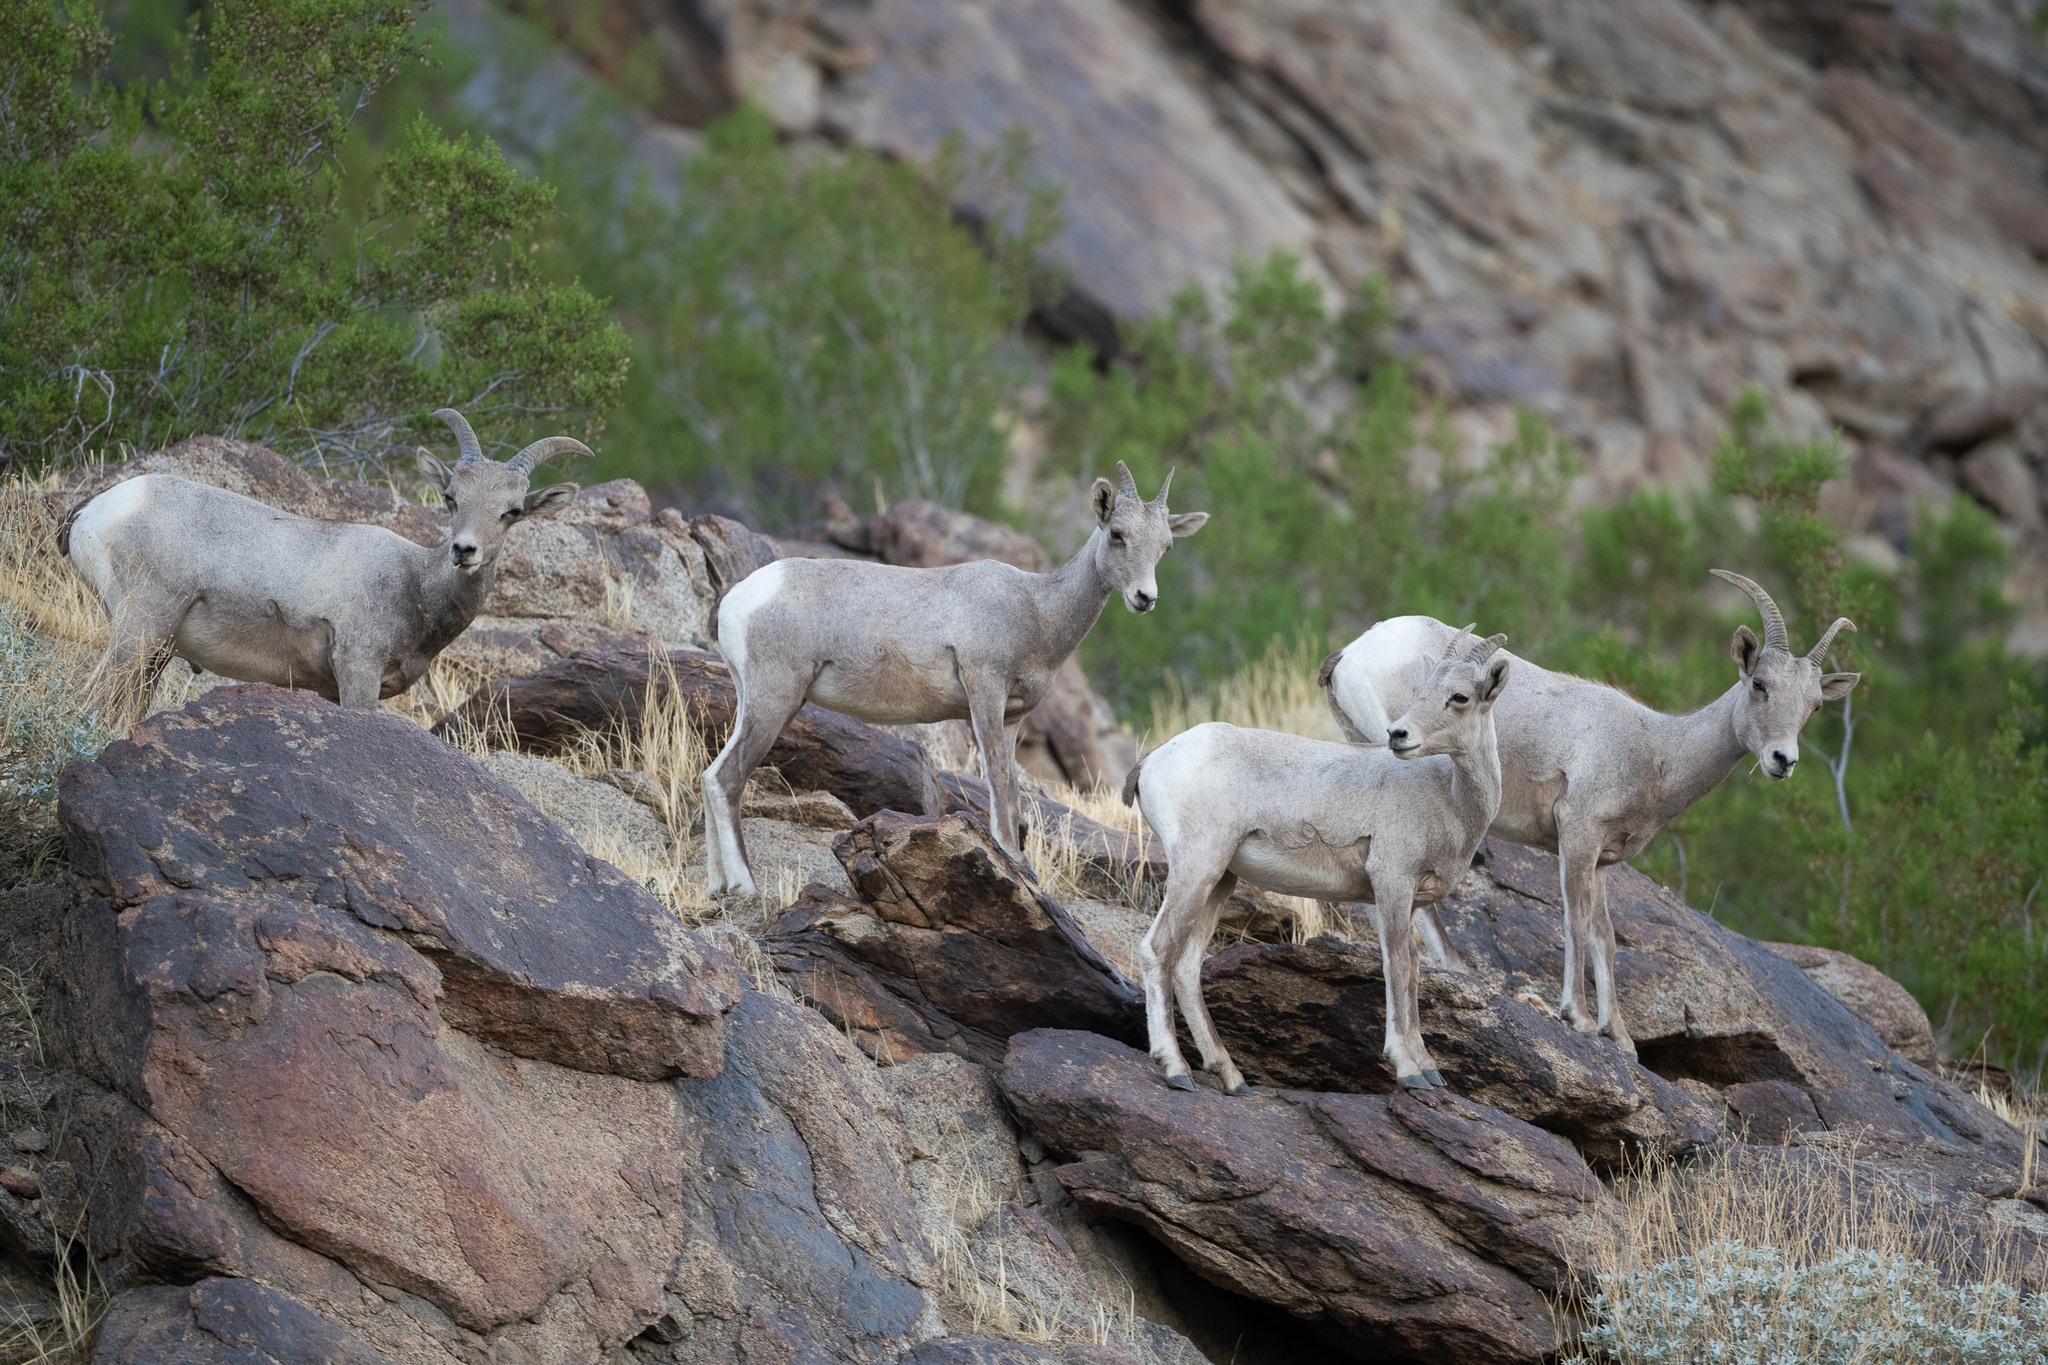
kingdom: Animalia
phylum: Chordata
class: Mammalia
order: Artiodactyla
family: Bovidae
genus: Ovis
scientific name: Ovis canadensis
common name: Bighorn sheep
